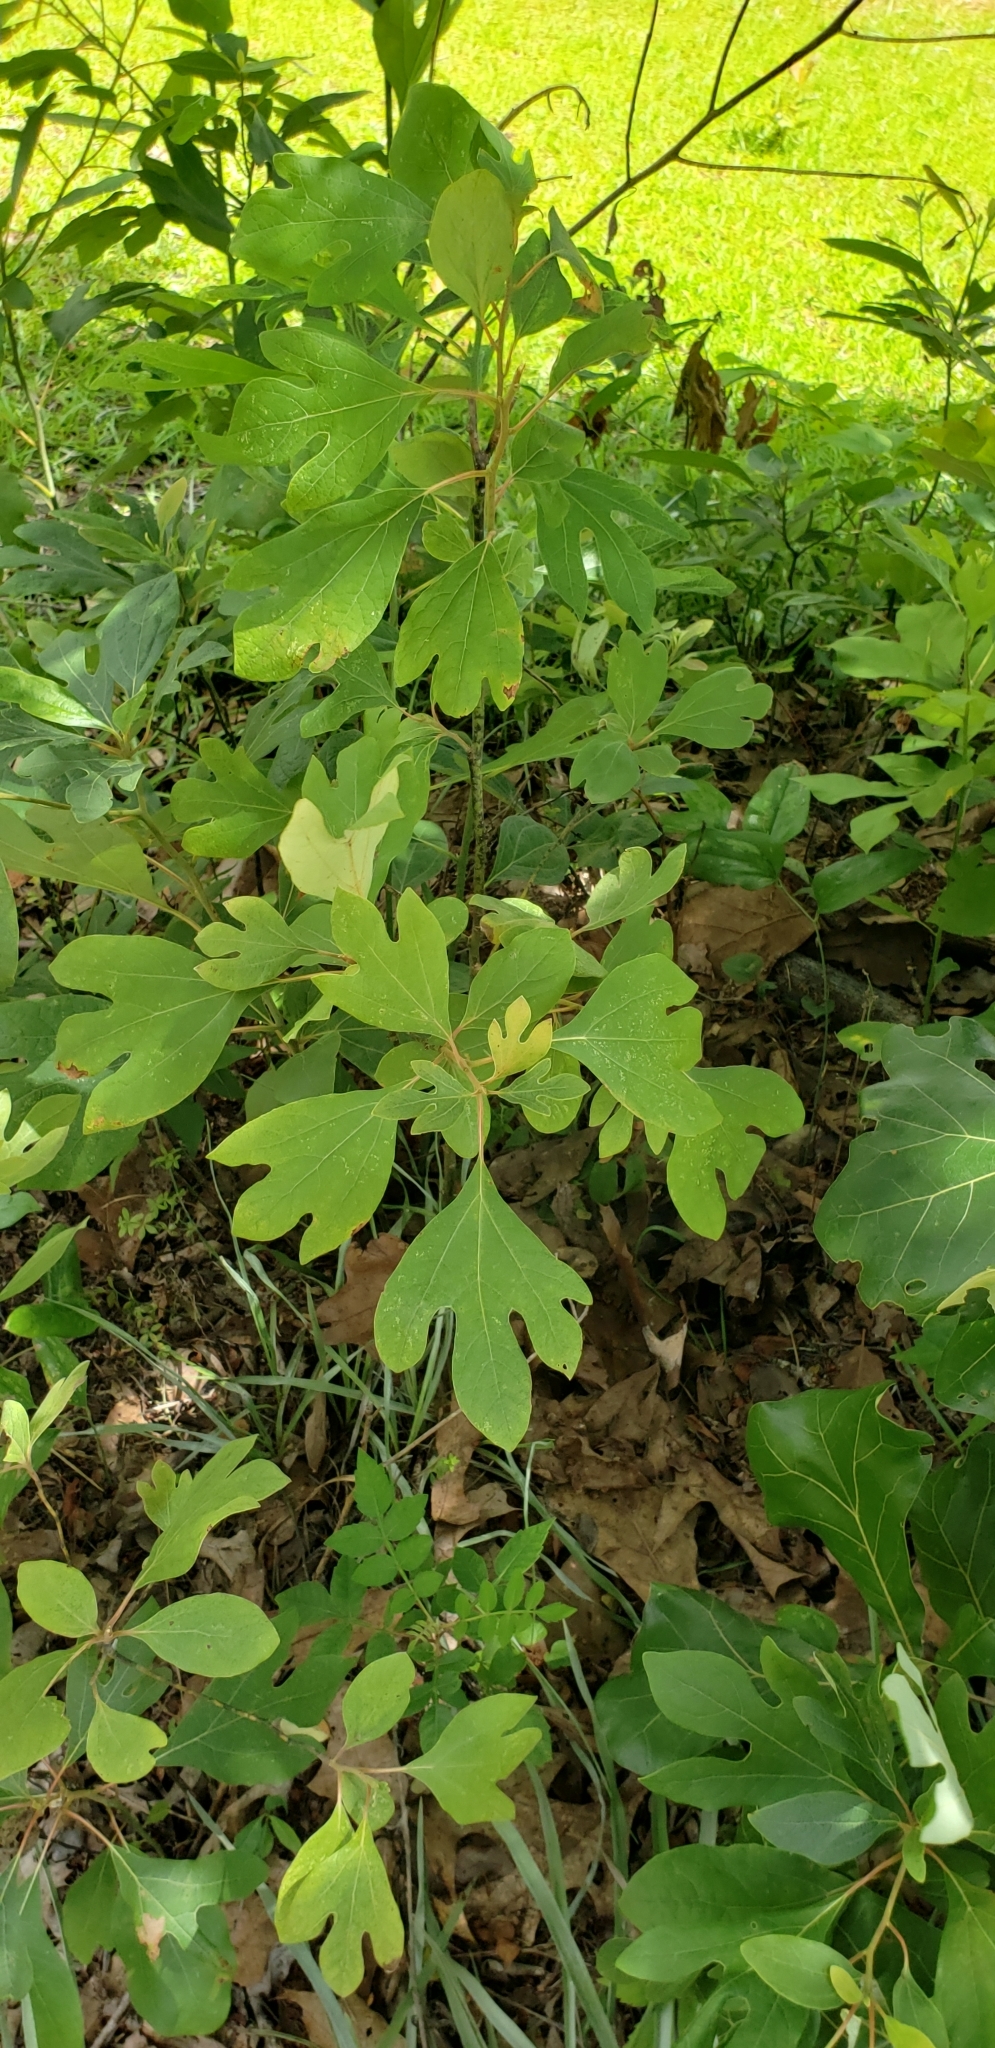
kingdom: Plantae
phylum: Tracheophyta
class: Magnoliopsida
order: Laurales
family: Lauraceae
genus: Sassafras
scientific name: Sassafras albidum
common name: Sassafras
